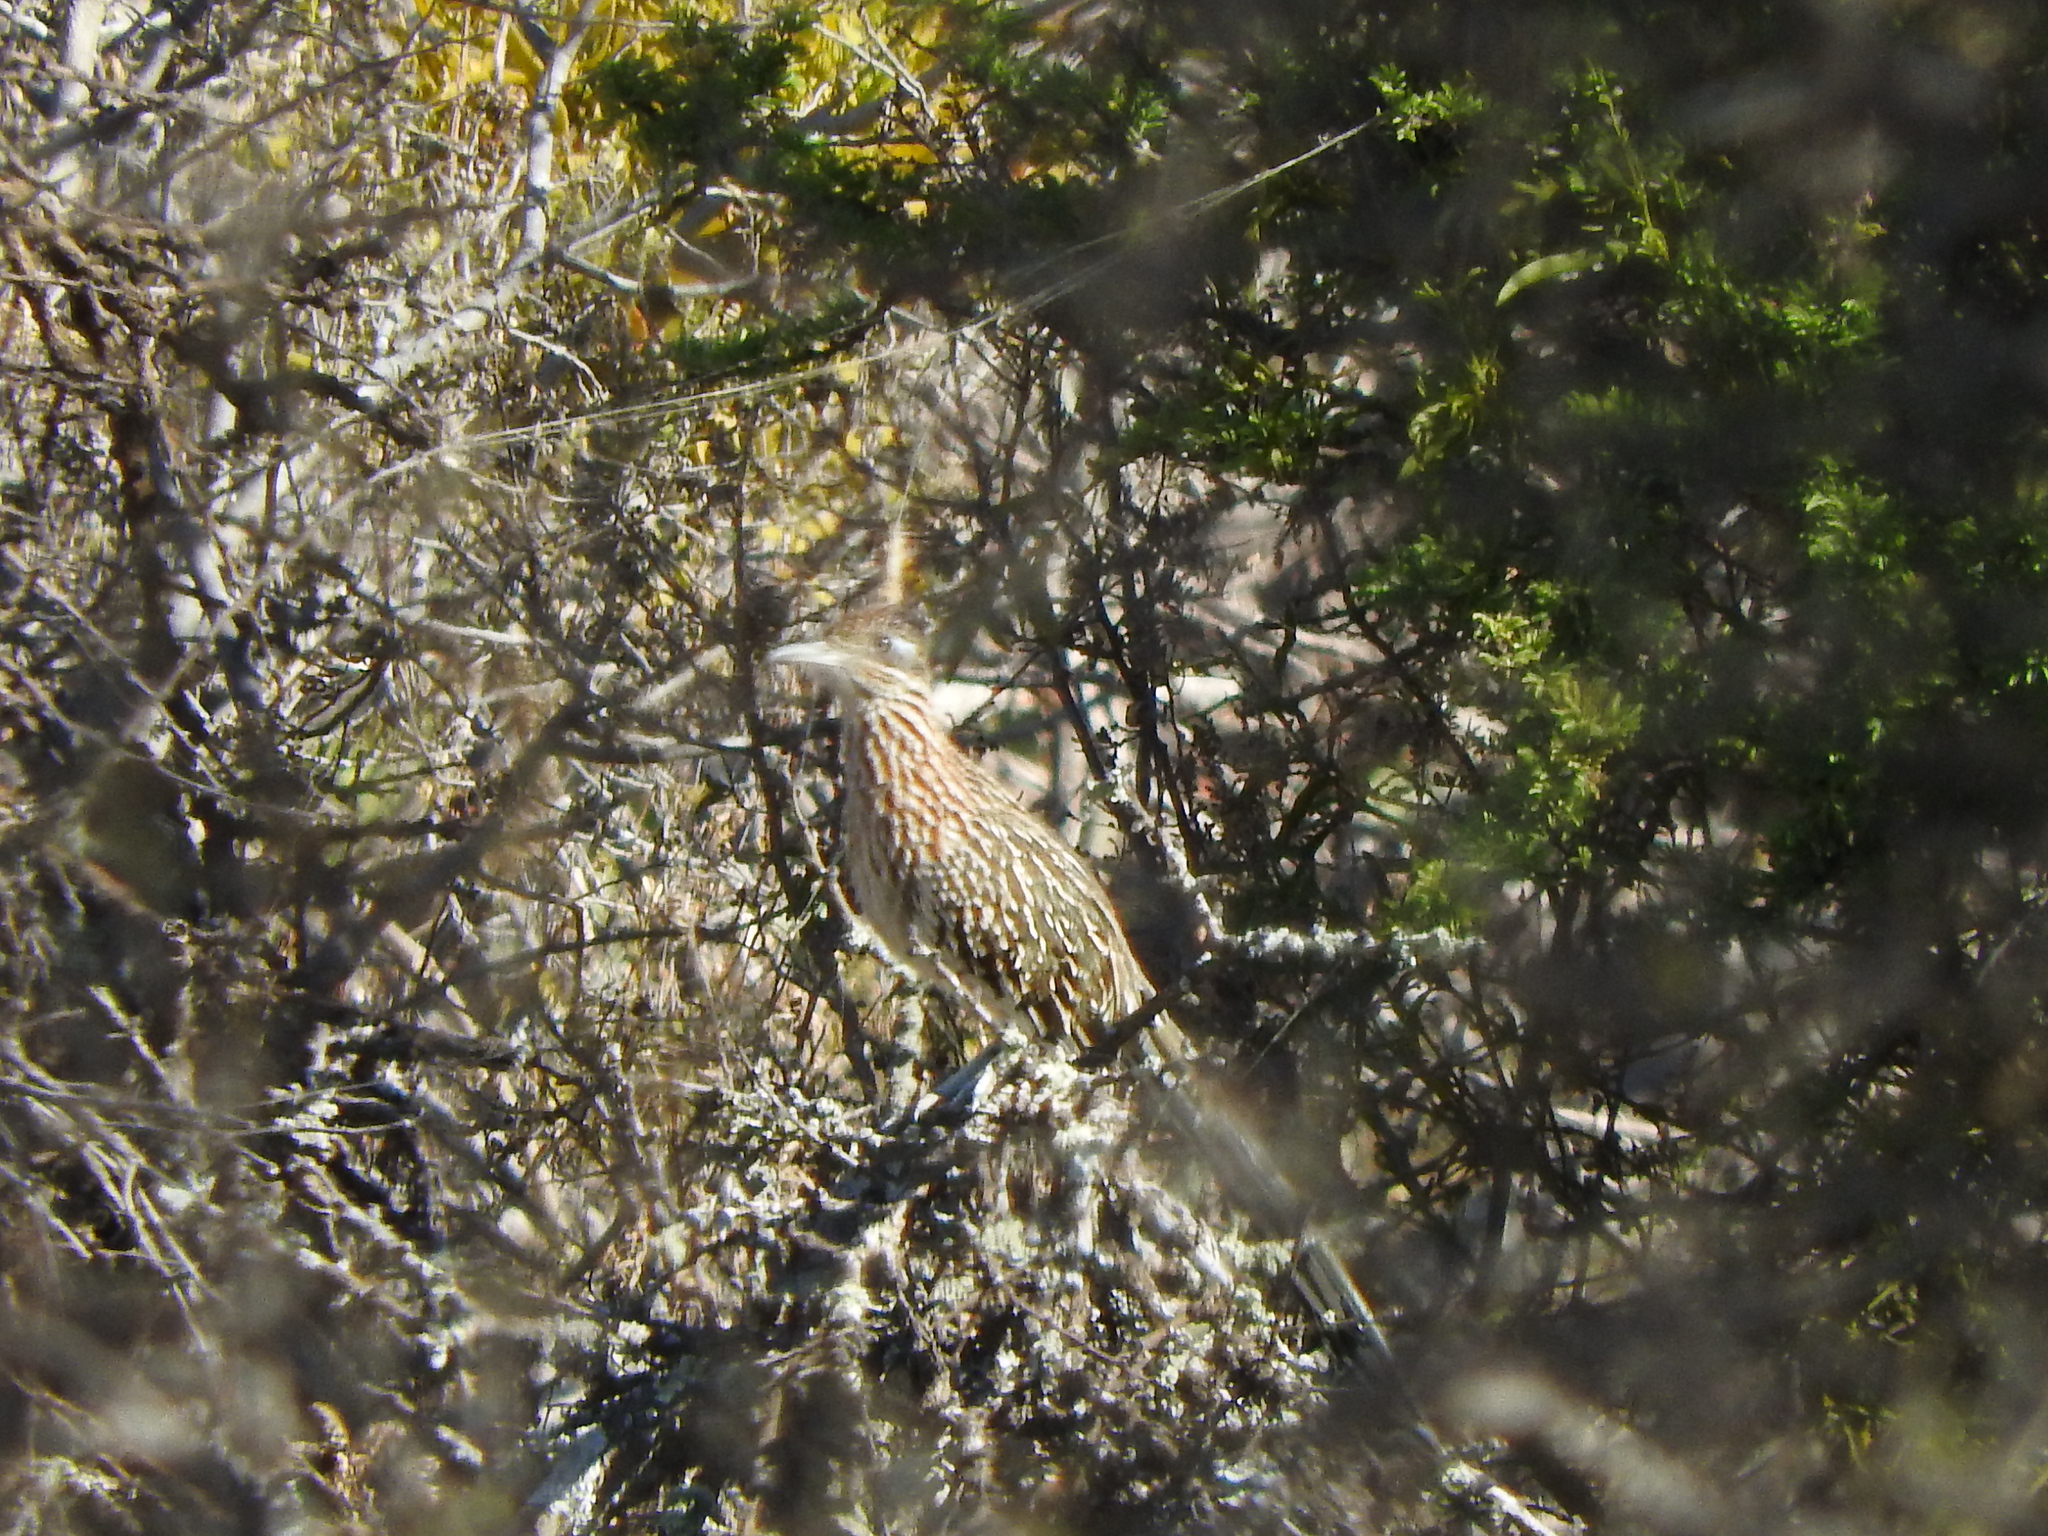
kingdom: Animalia
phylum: Chordata
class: Aves
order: Cuculiformes
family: Cuculidae
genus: Geococcyx
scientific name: Geococcyx californianus
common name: Greater roadrunner
